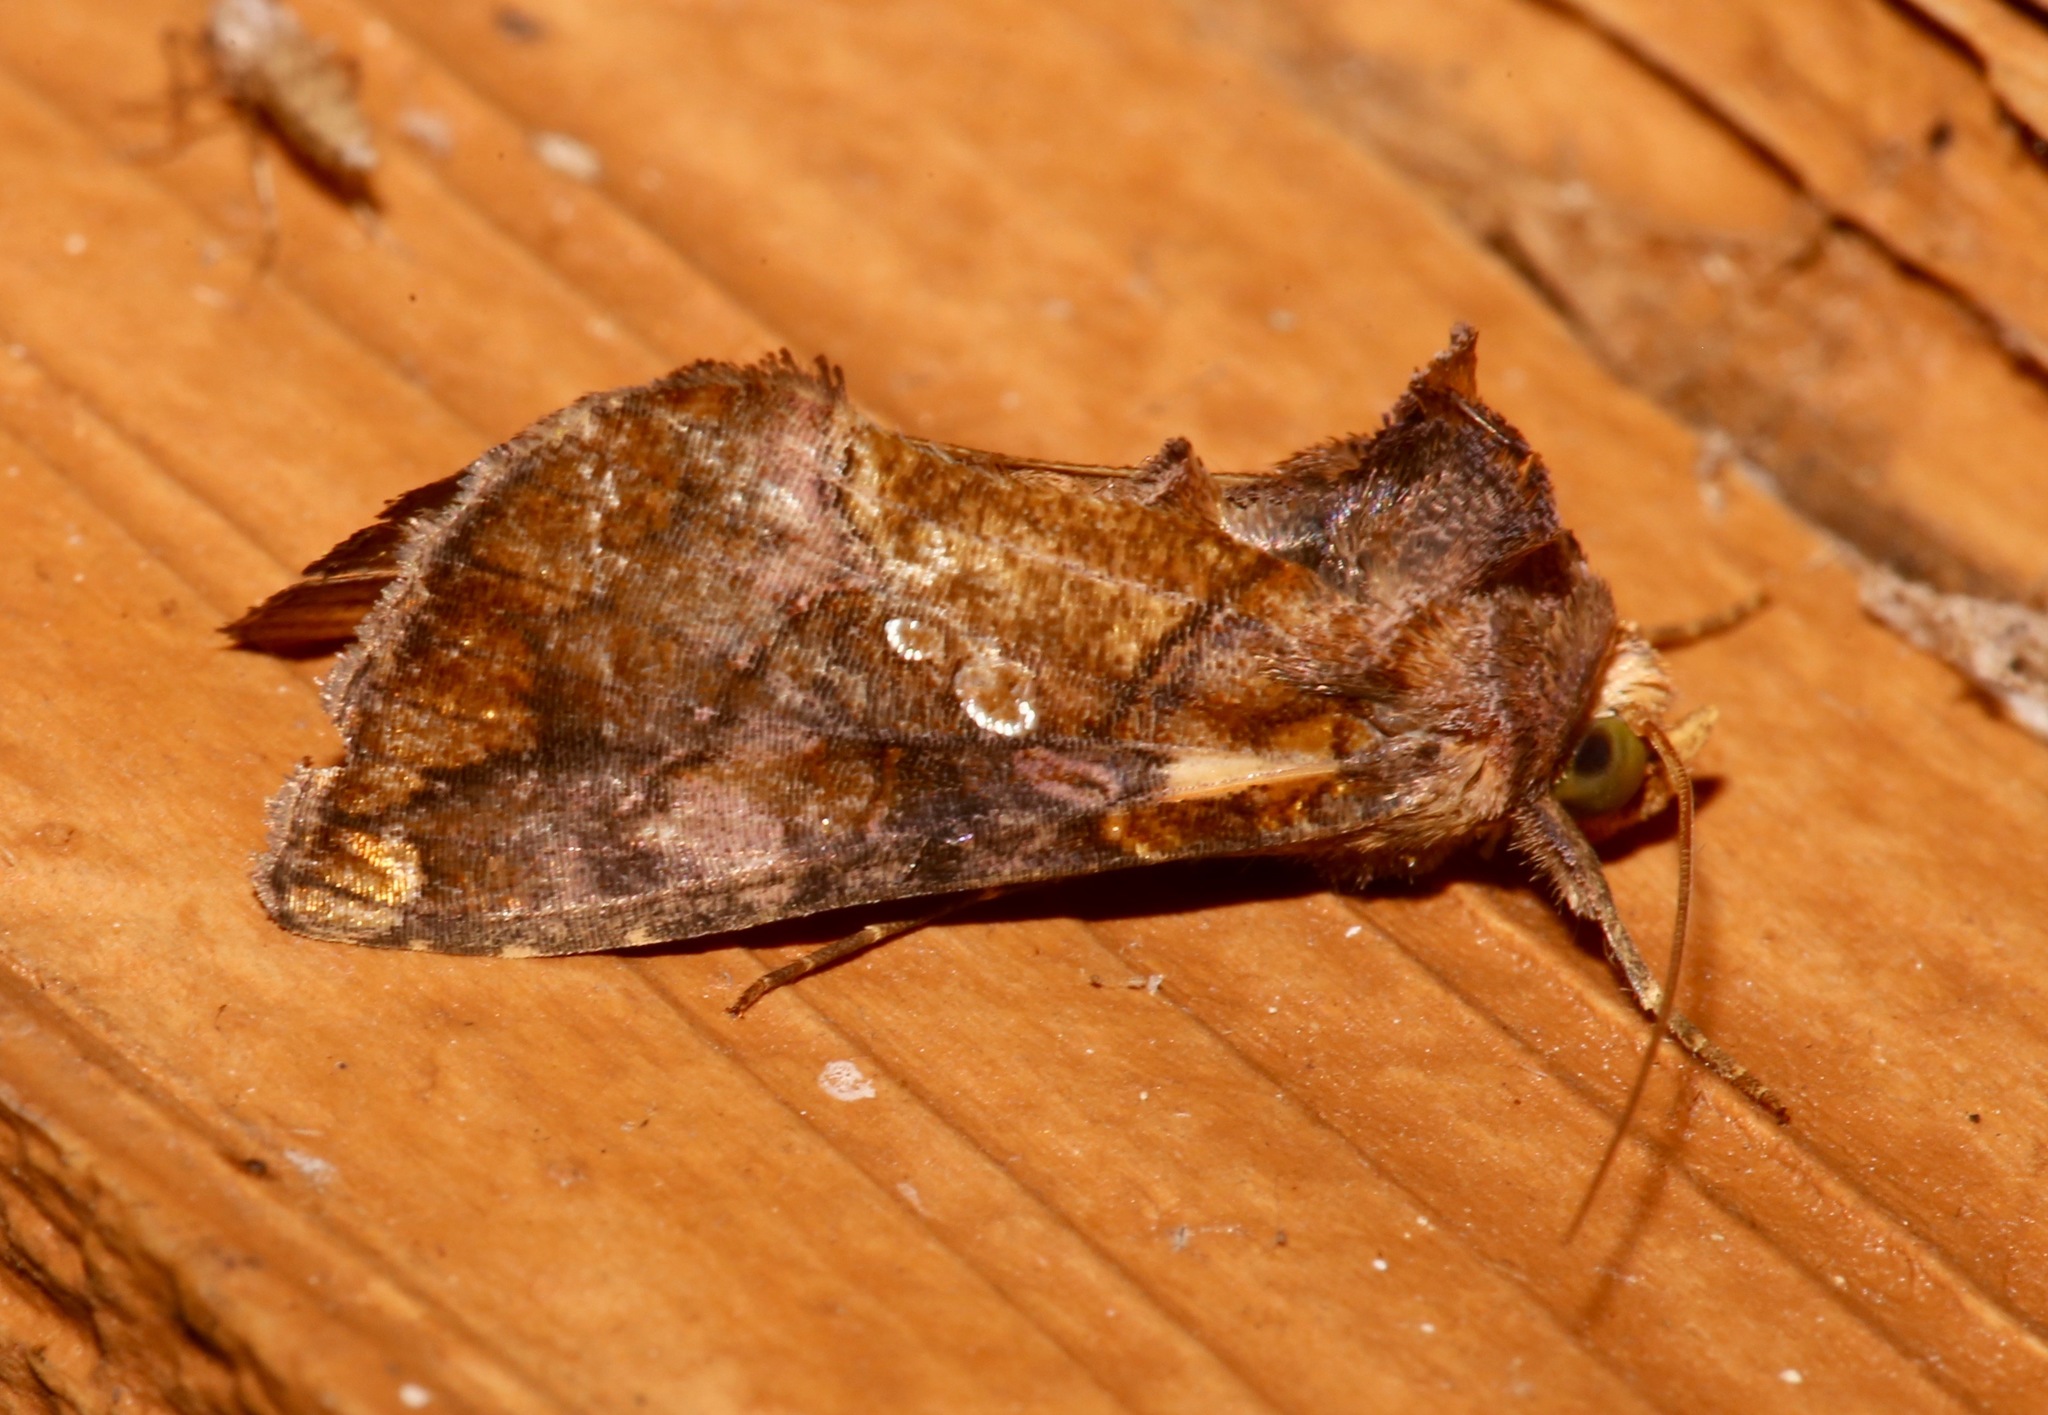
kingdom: Animalia
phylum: Arthropoda
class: Insecta
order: Lepidoptera
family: Noctuidae
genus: Argyrogramma
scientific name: Argyrogramma verruca
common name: Golden looper moth
